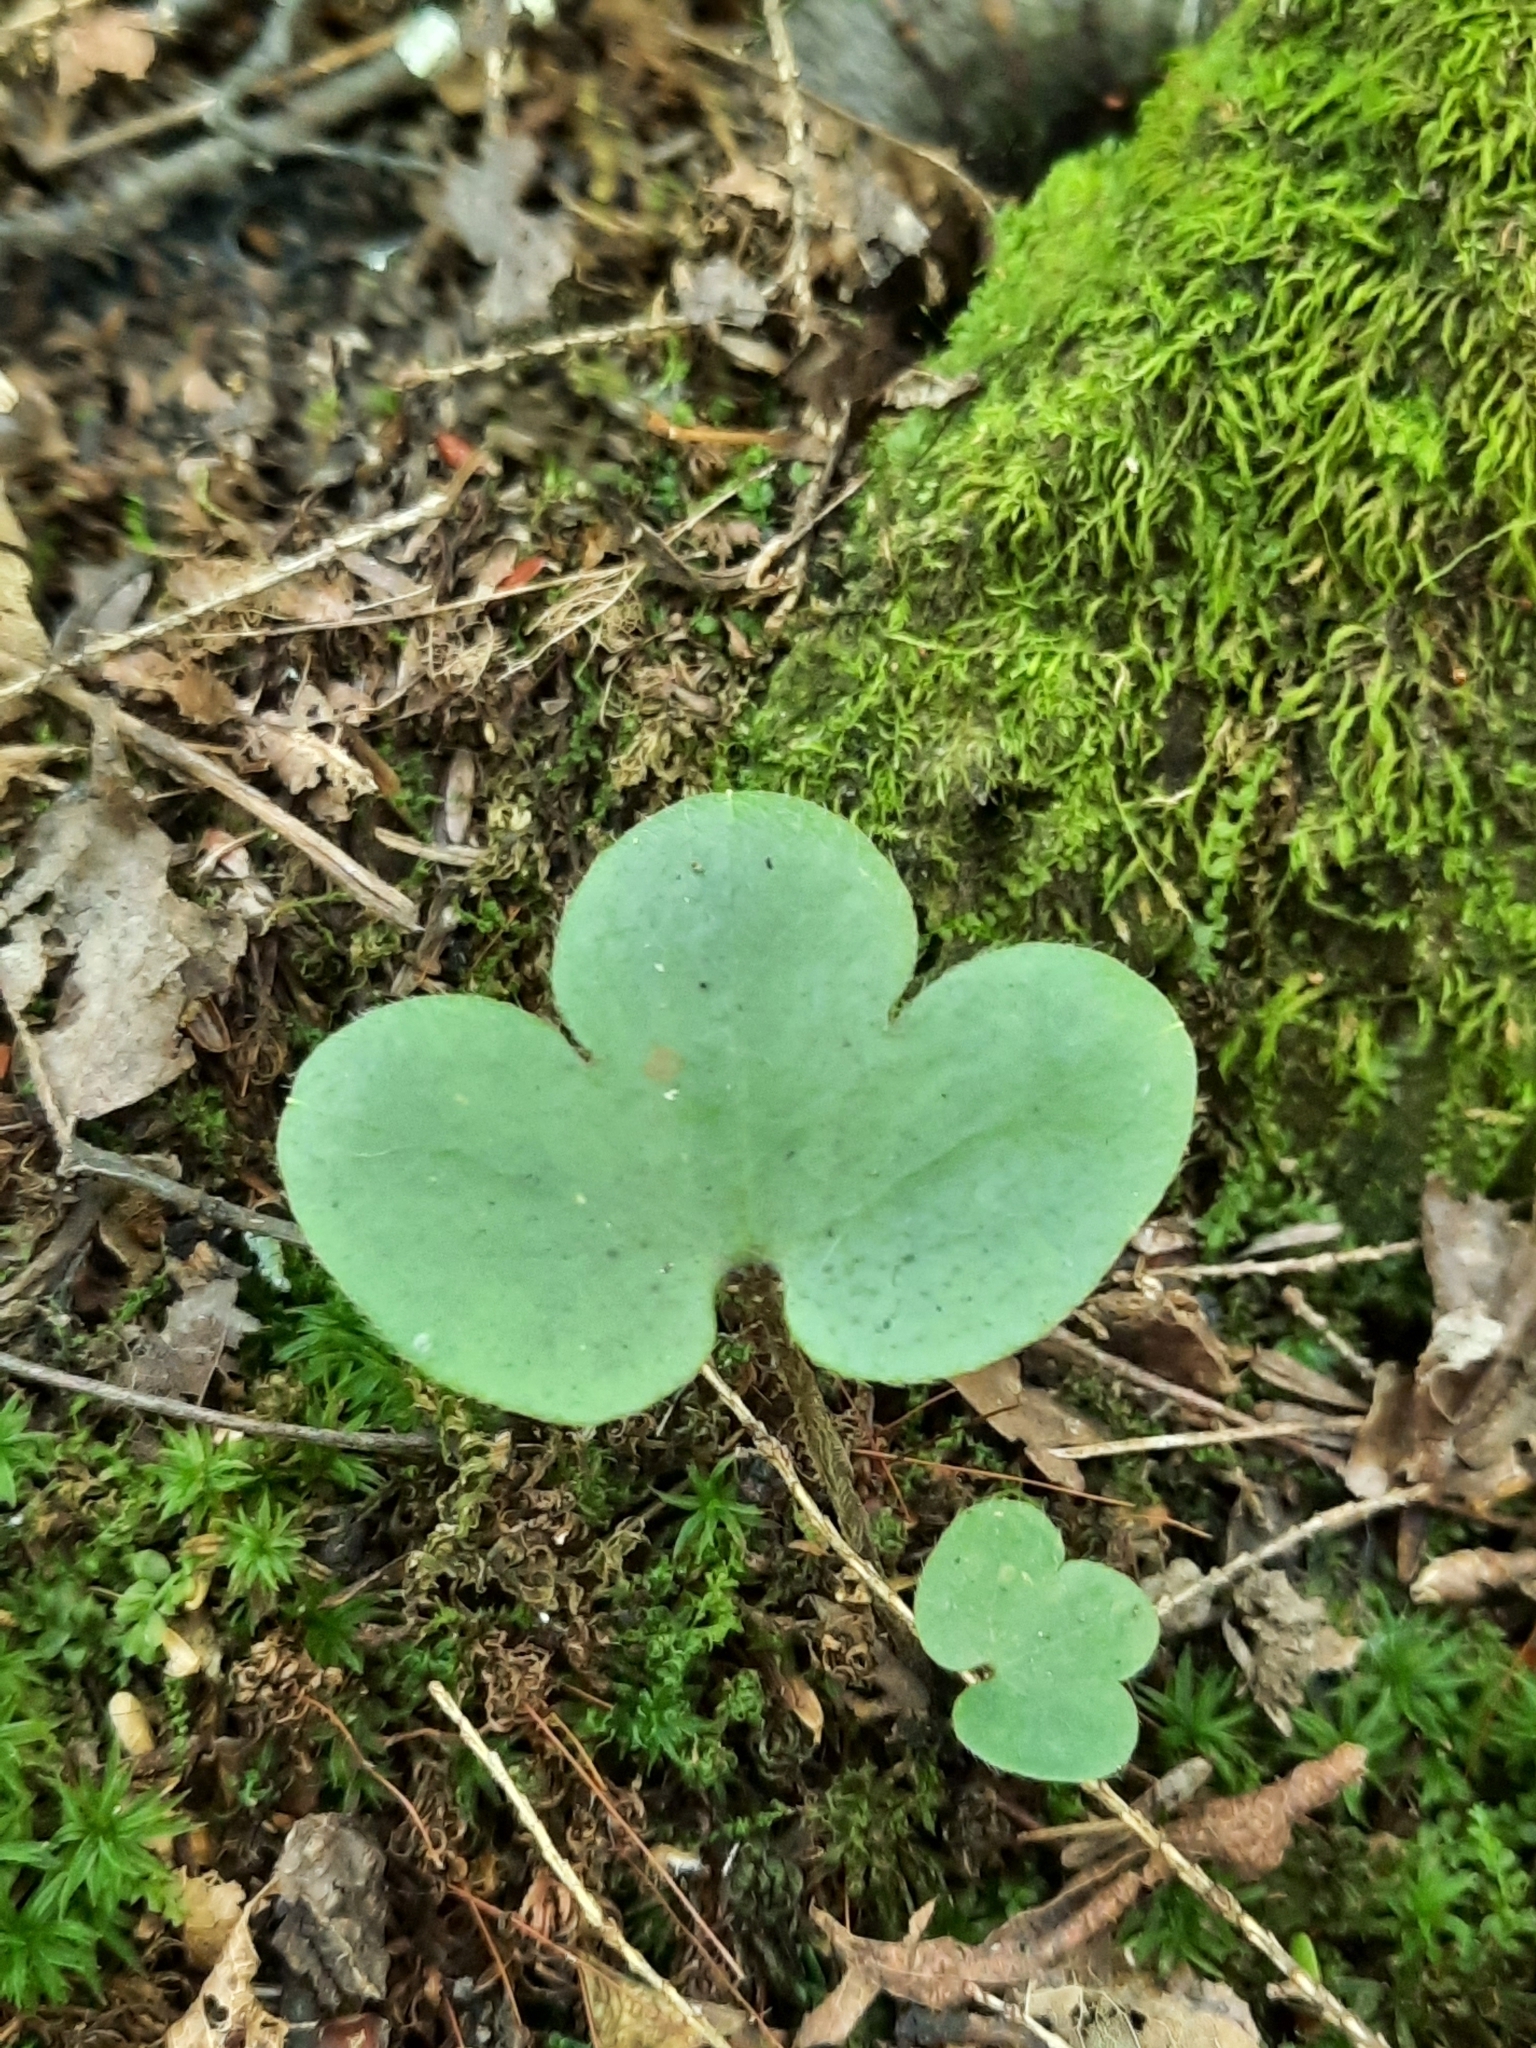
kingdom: Plantae
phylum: Tracheophyta
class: Magnoliopsida
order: Ranunculales
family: Ranunculaceae
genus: Hepatica
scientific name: Hepatica americana
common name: American hepatica
